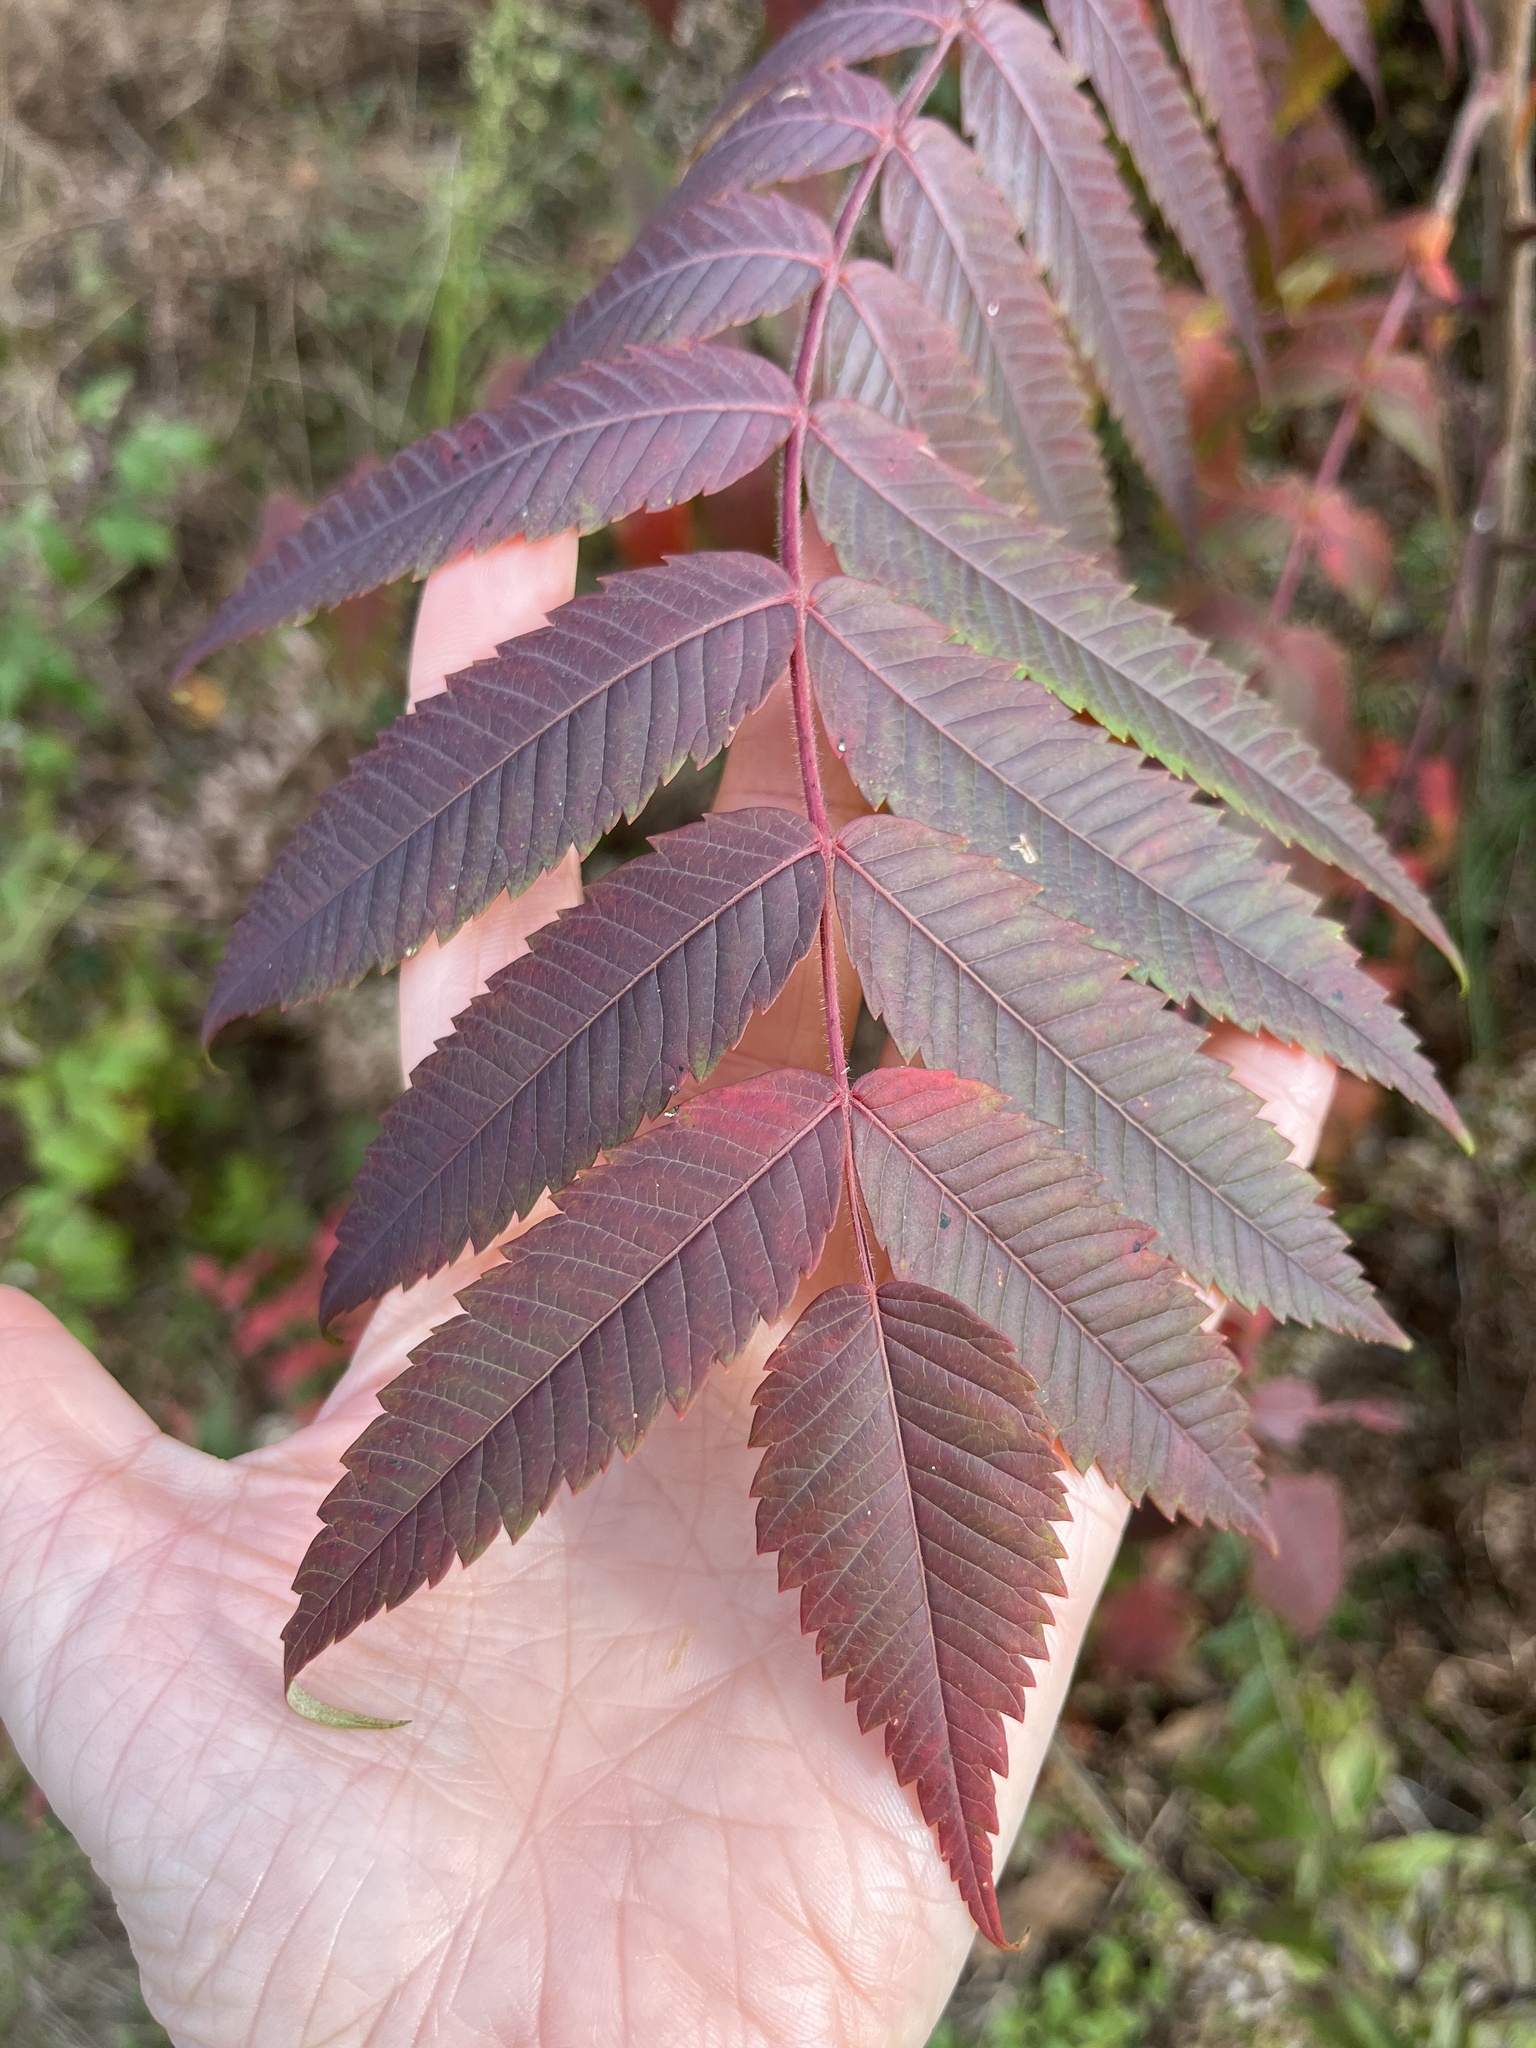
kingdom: Plantae
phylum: Tracheophyta
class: Magnoliopsida
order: Sapindales
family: Anacardiaceae
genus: Rhus
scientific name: Rhus typhina
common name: Staghorn sumac
